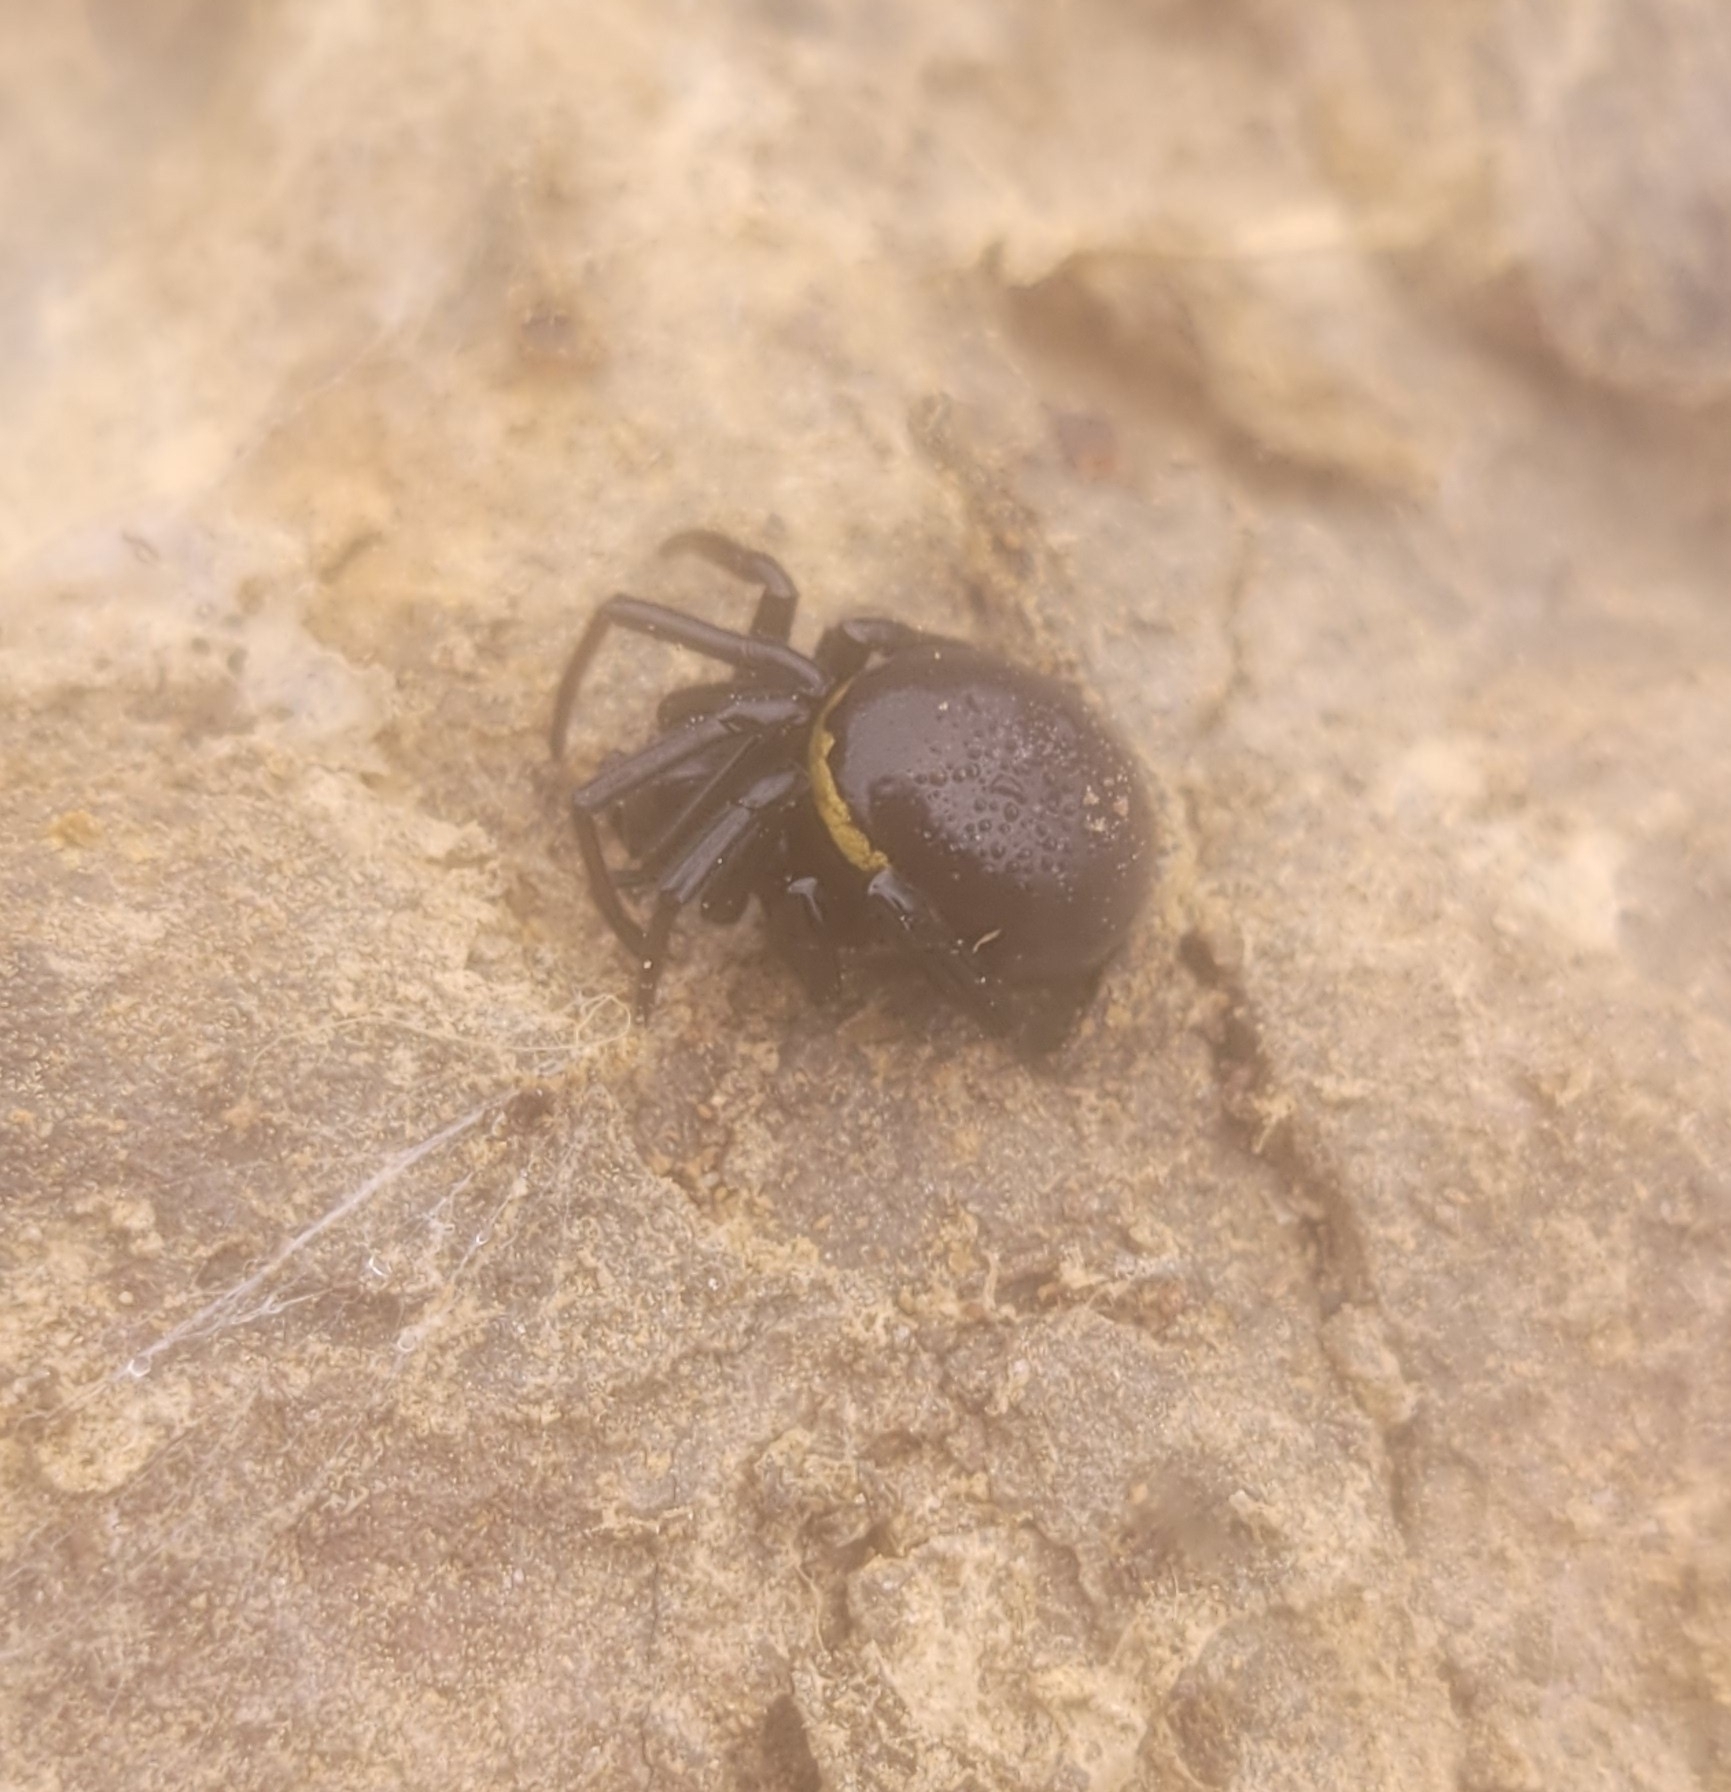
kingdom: Animalia
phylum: Arthropoda
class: Arachnida
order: Araneae
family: Theridiidae
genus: Steatoda
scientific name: Steatoda paykulliana
